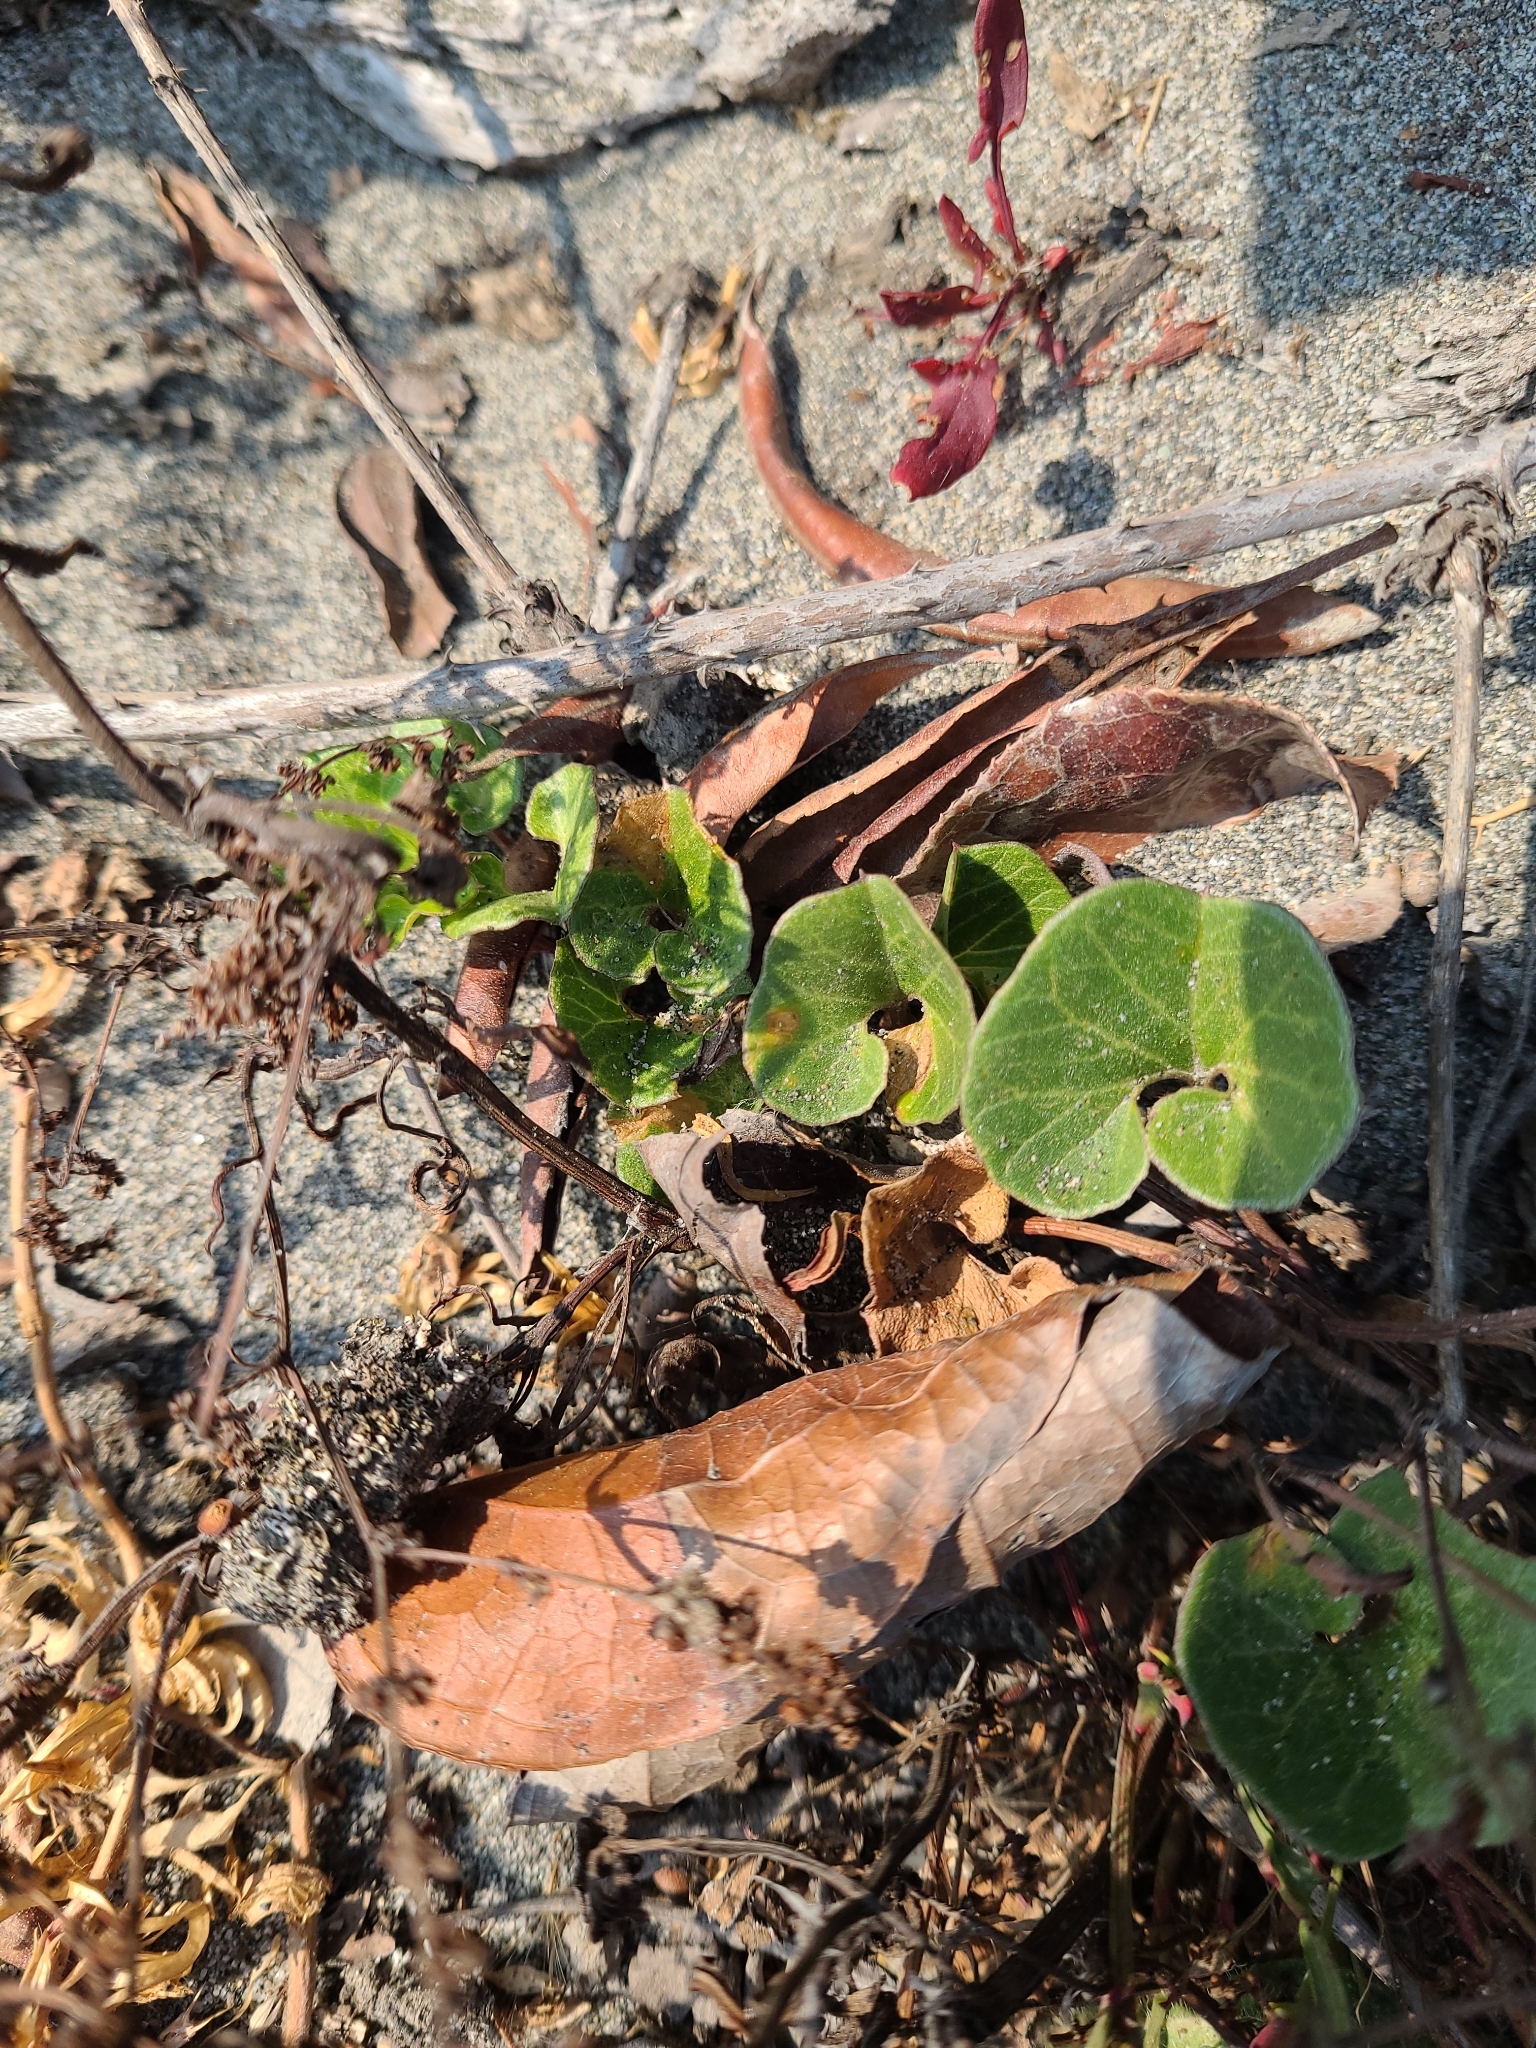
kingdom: Plantae
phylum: Tracheophyta
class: Magnoliopsida
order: Solanales
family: Convolvulaceae
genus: Calystegia
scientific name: Calystegia soldanella
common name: Sea bindweed
